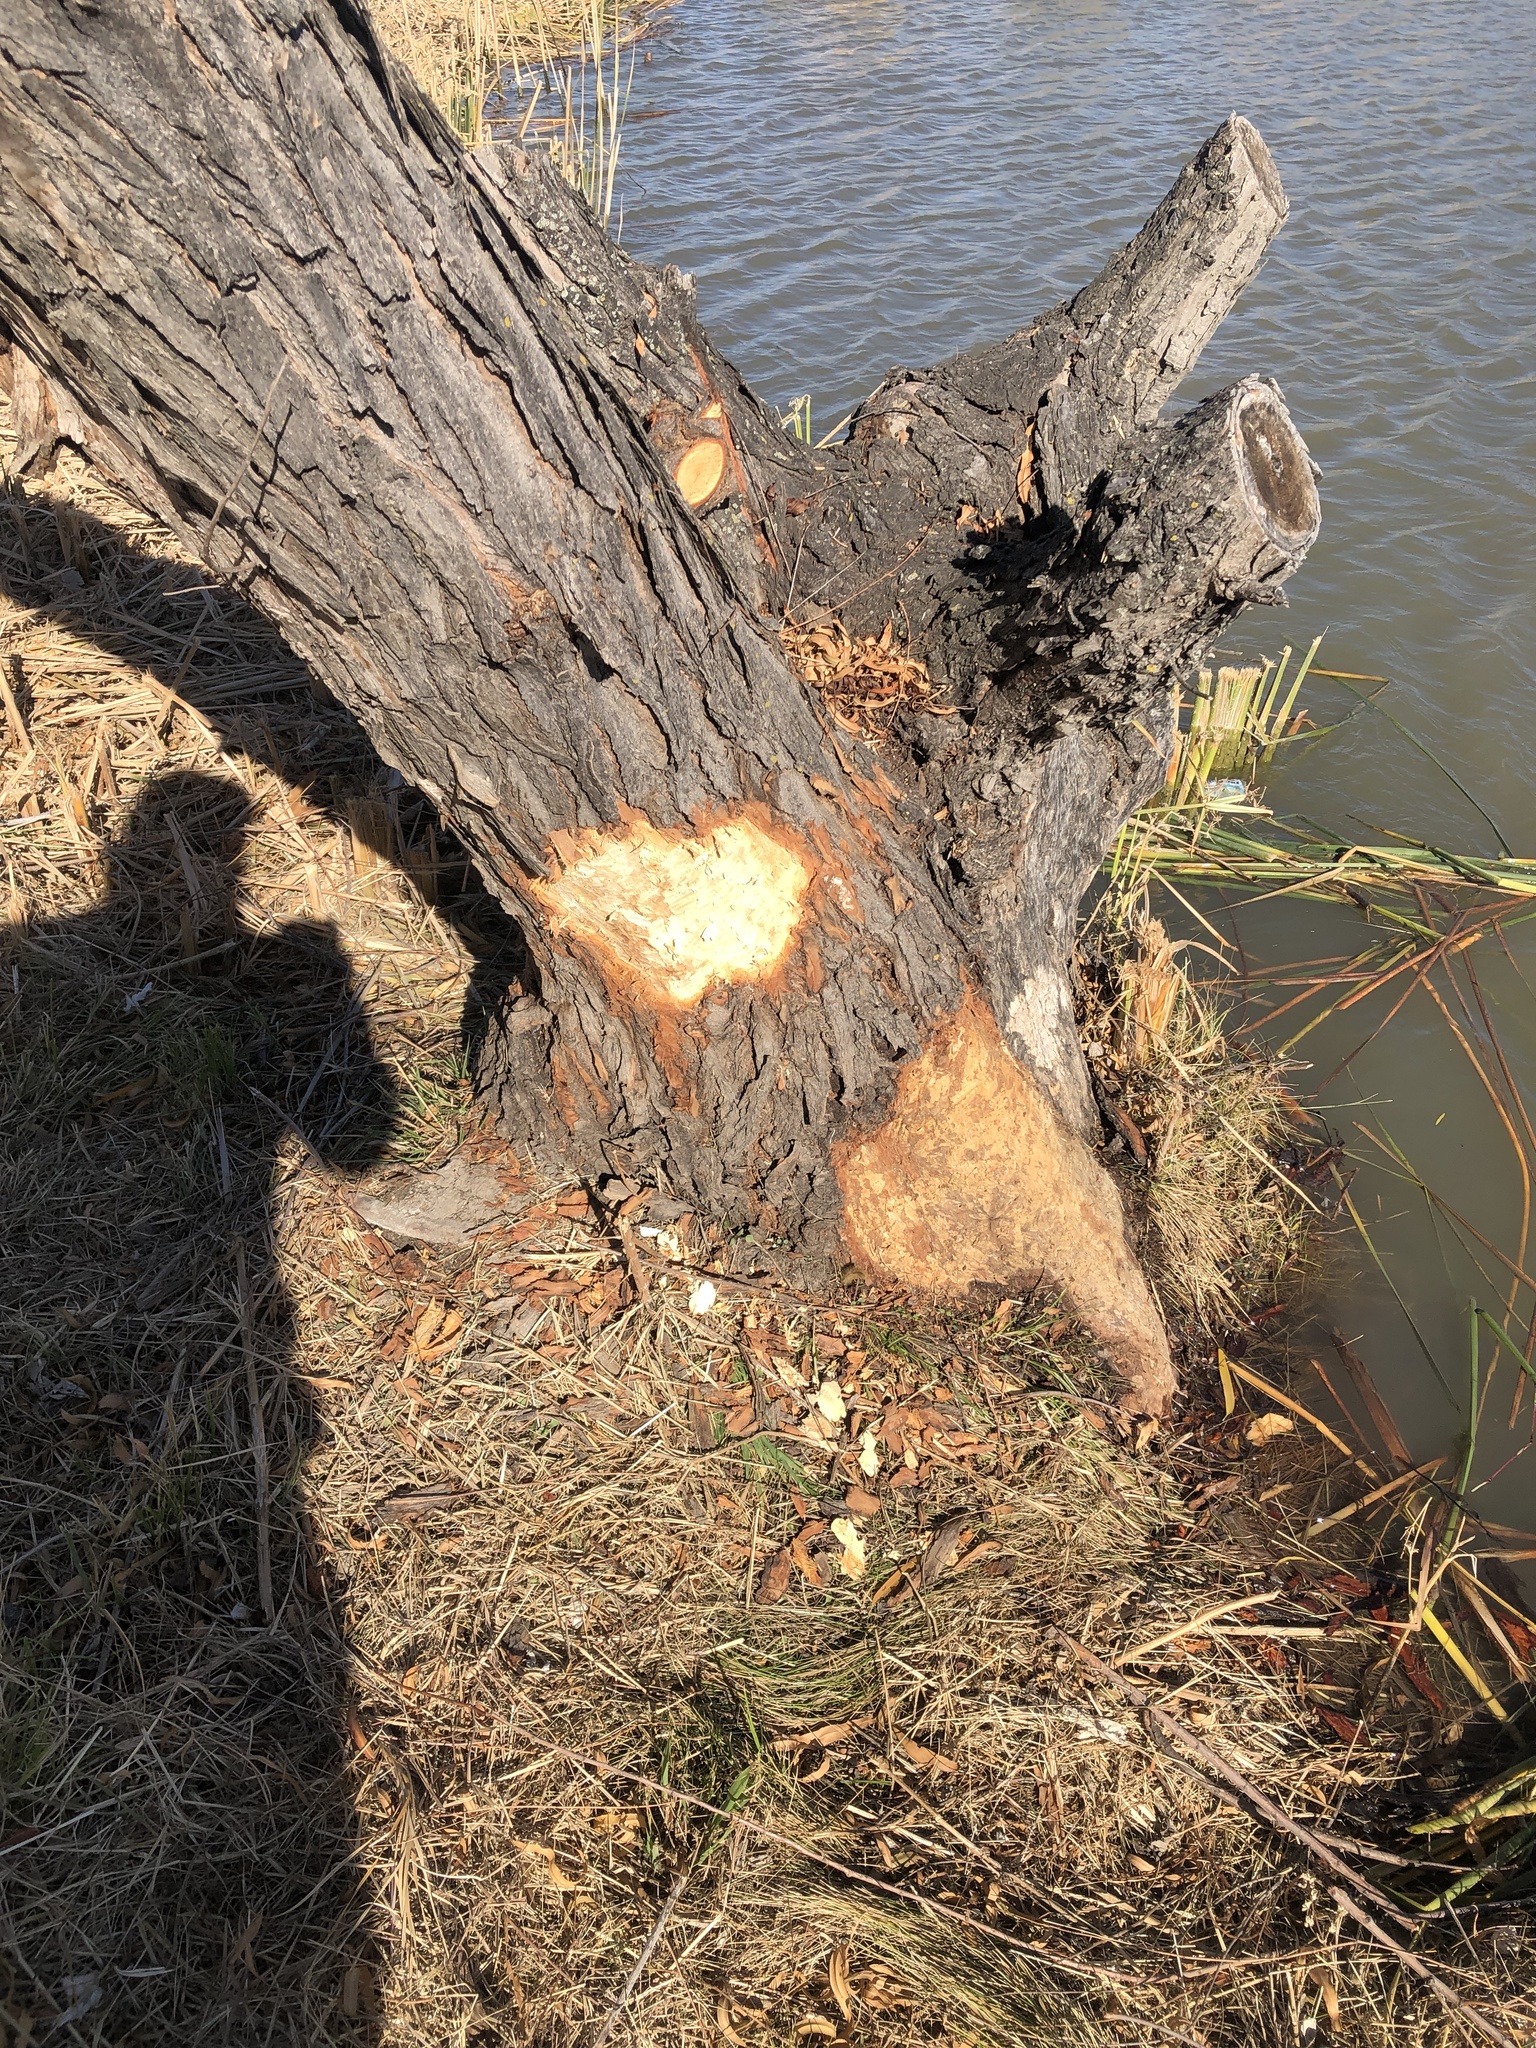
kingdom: Animalia
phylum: Chordata
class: Mammalia
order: Rodentia
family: Castoridae
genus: Castor
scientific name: Castor canadensis
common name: American beaver
